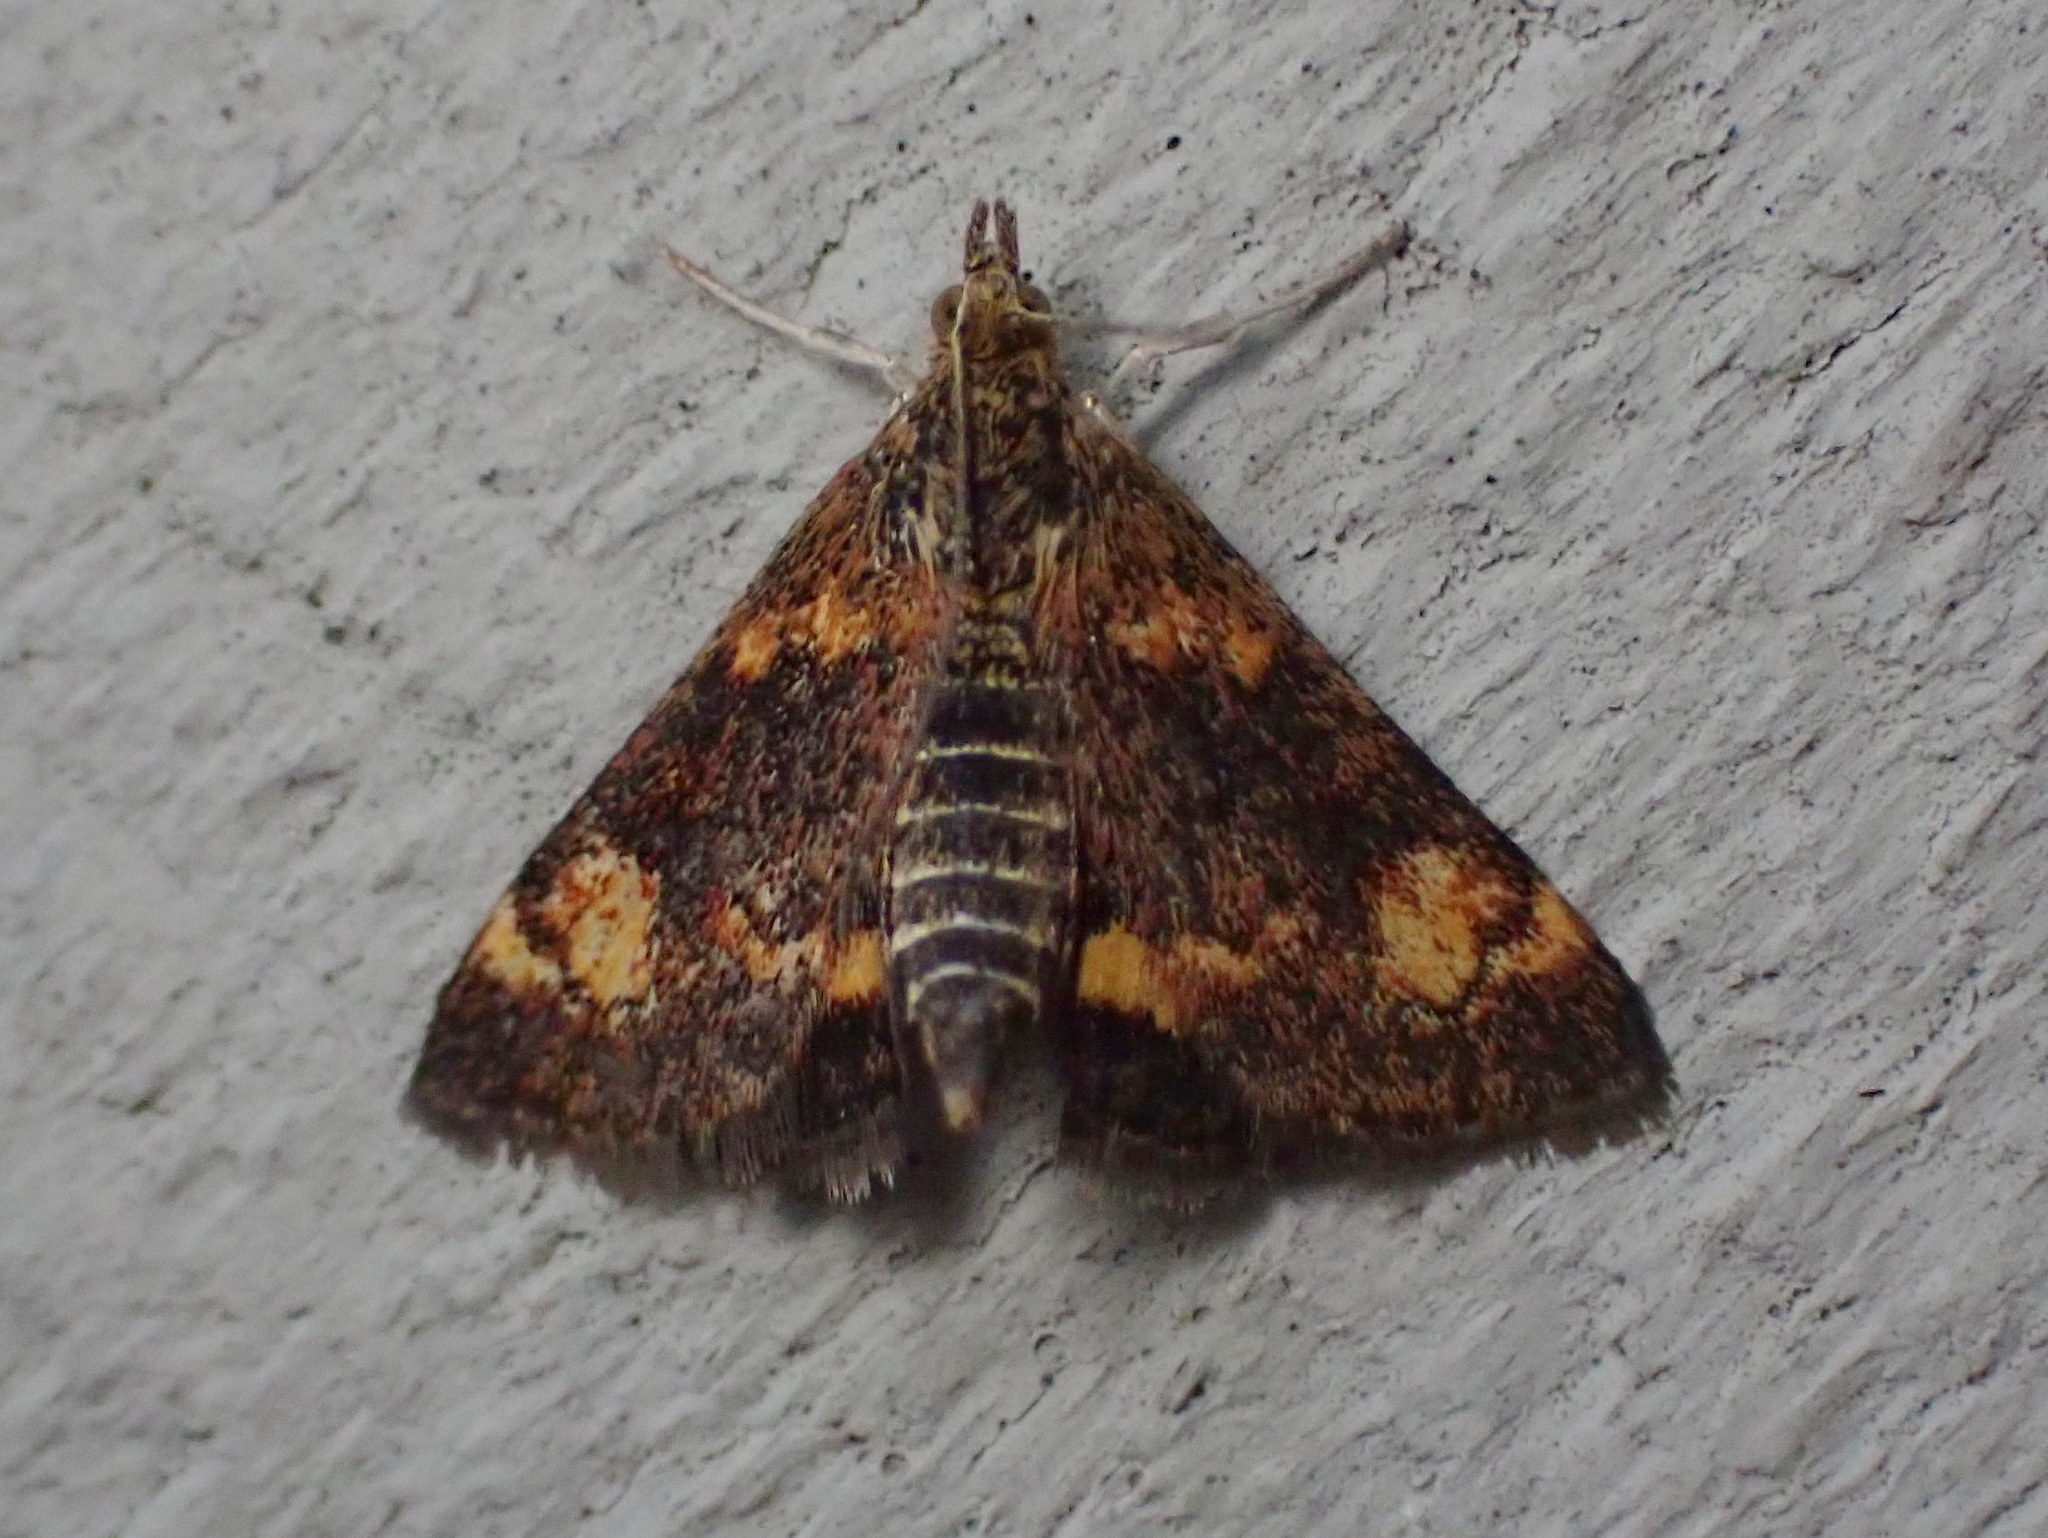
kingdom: Animalia
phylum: Arthropoda
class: Insecta
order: Lepidoptera
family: Crambidae
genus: Pyrausta
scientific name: Pyrausta orphisalis
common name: Orange mint moth
